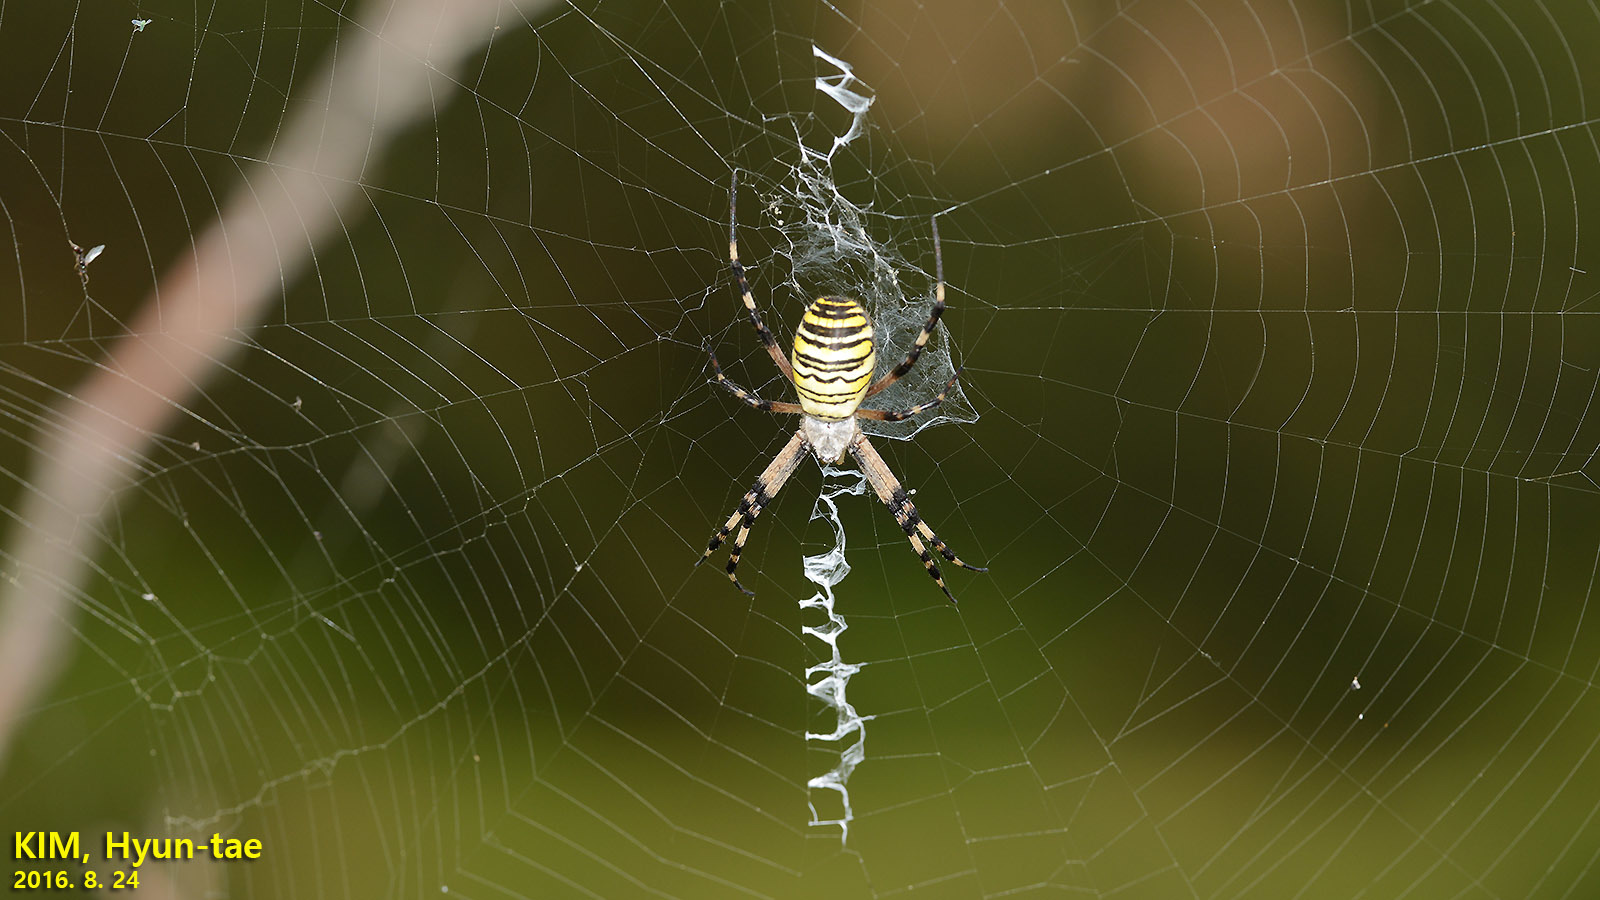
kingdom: Animalia
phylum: Arthropoda
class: Arachnida
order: Araneae
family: Araneidae
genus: Argiope
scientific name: Argiope bruennichi
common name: Wasp spider
